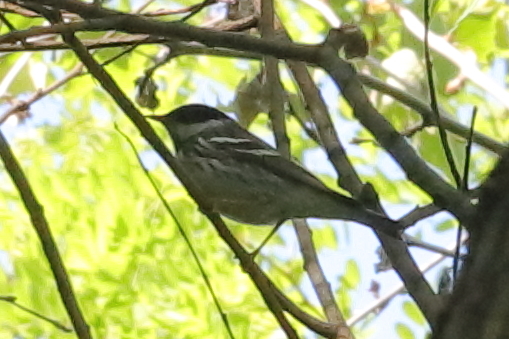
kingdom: Animalia
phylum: Chordata
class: Aves
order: Passeriformes
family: Parulidae
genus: Setophaga
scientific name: Setophaga striata
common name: Blackpoll warbler
